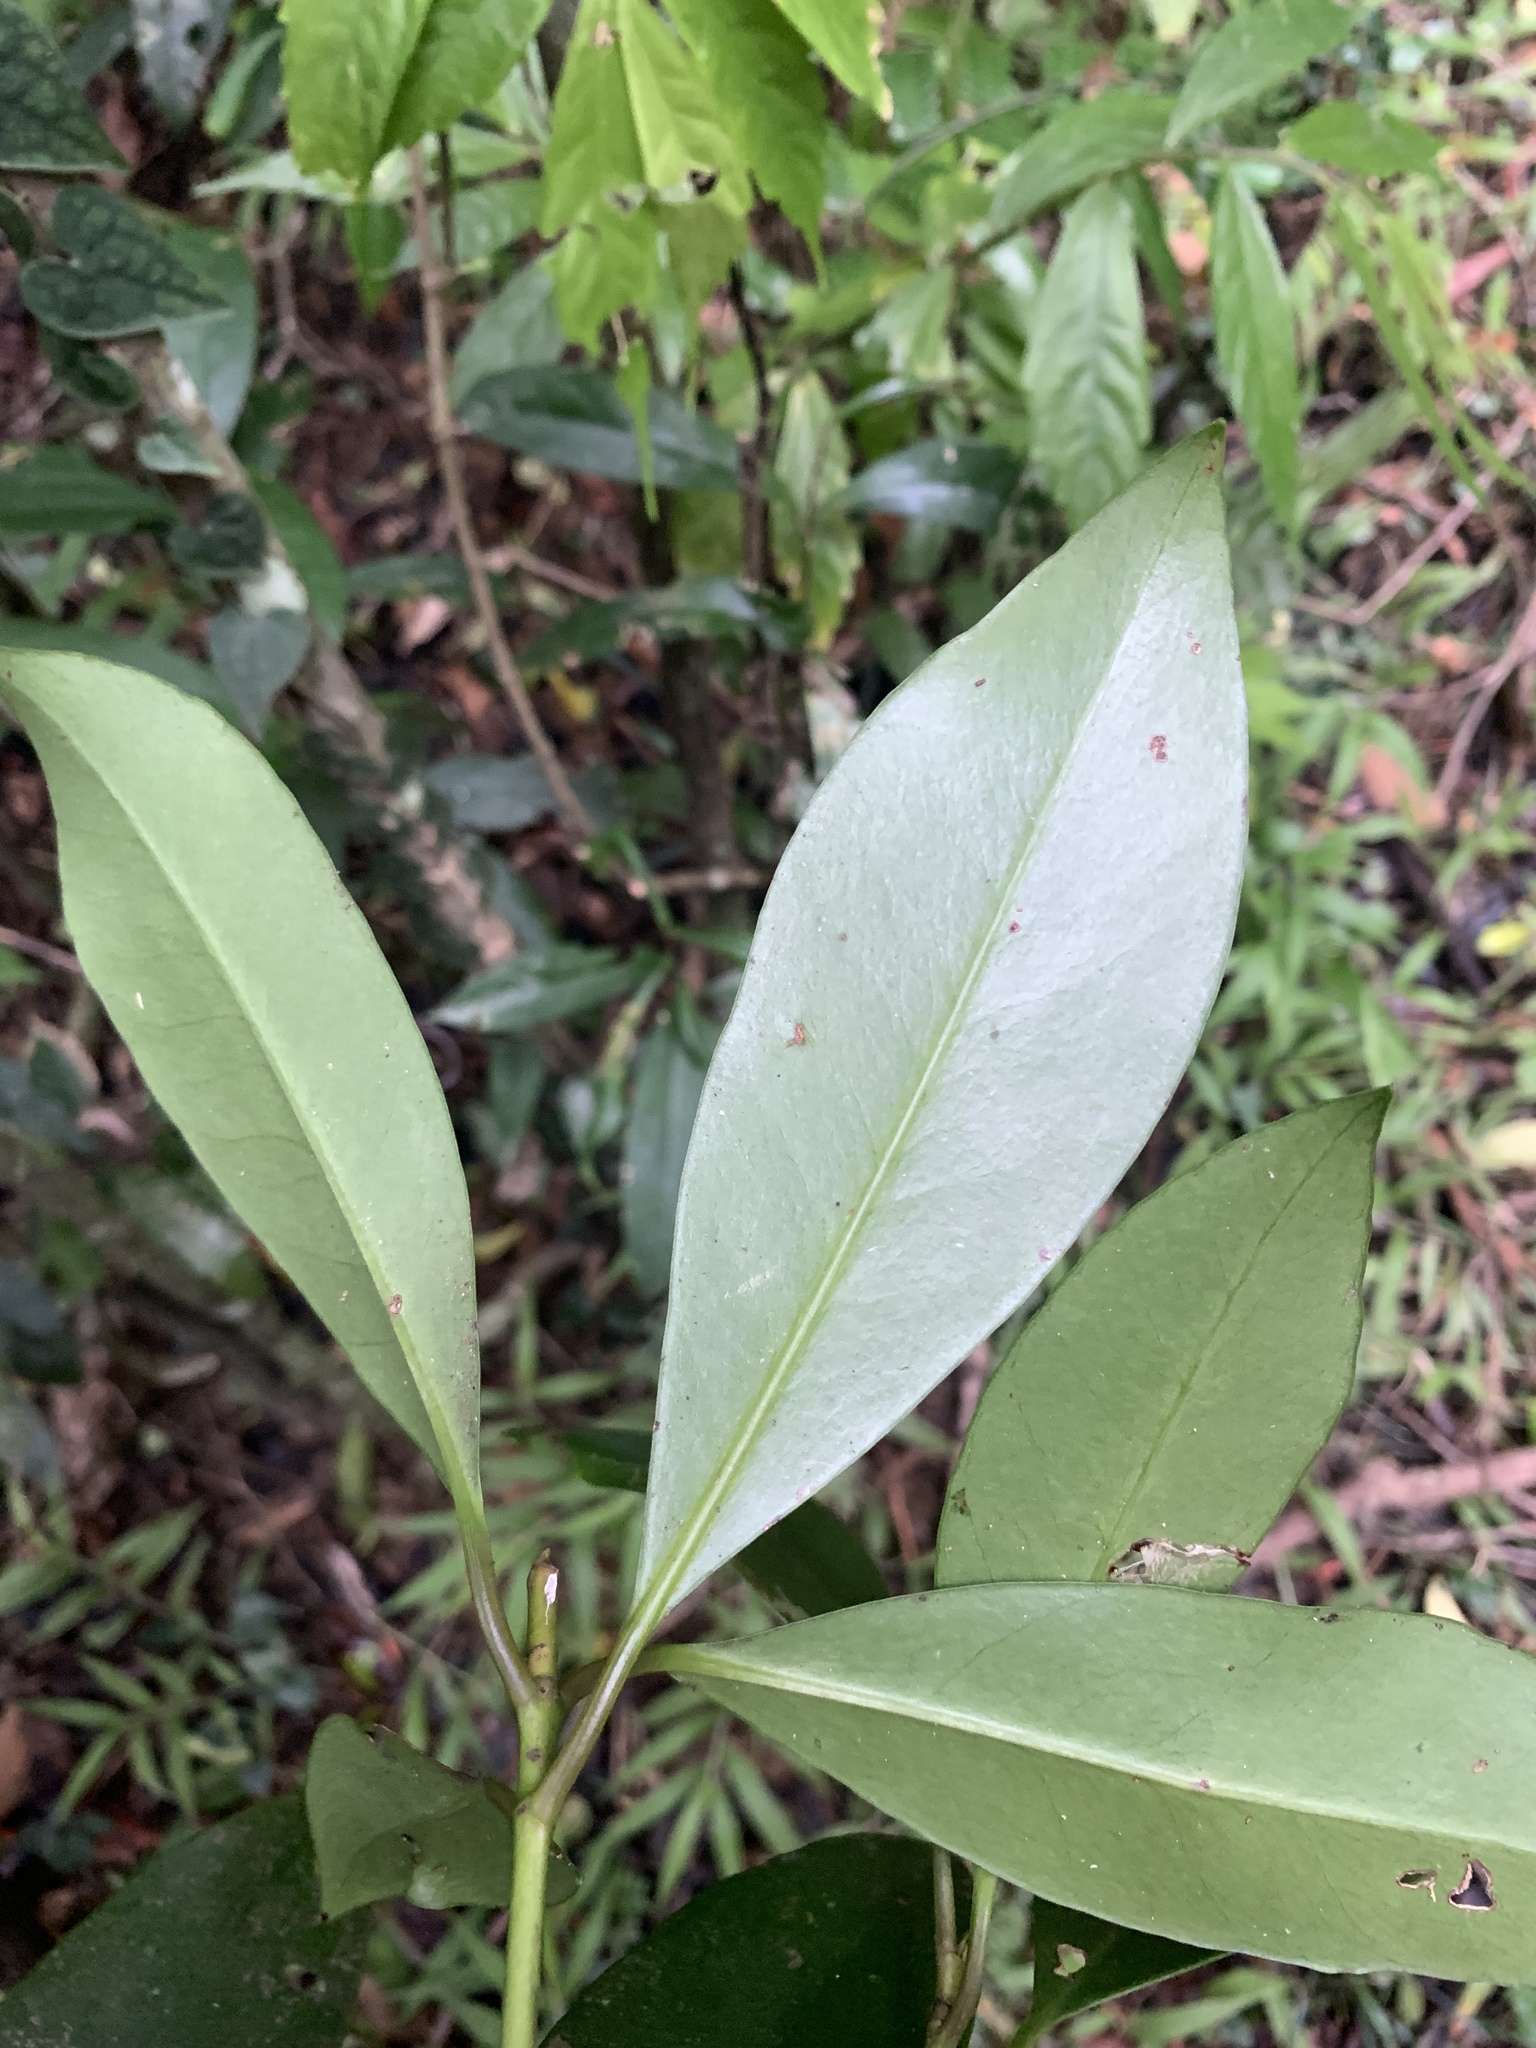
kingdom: Plantae
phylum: Tracheophyta
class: Magnoliopsida
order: Sapindales
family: Rutaceae
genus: Skimmia
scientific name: Skimmia japonica
